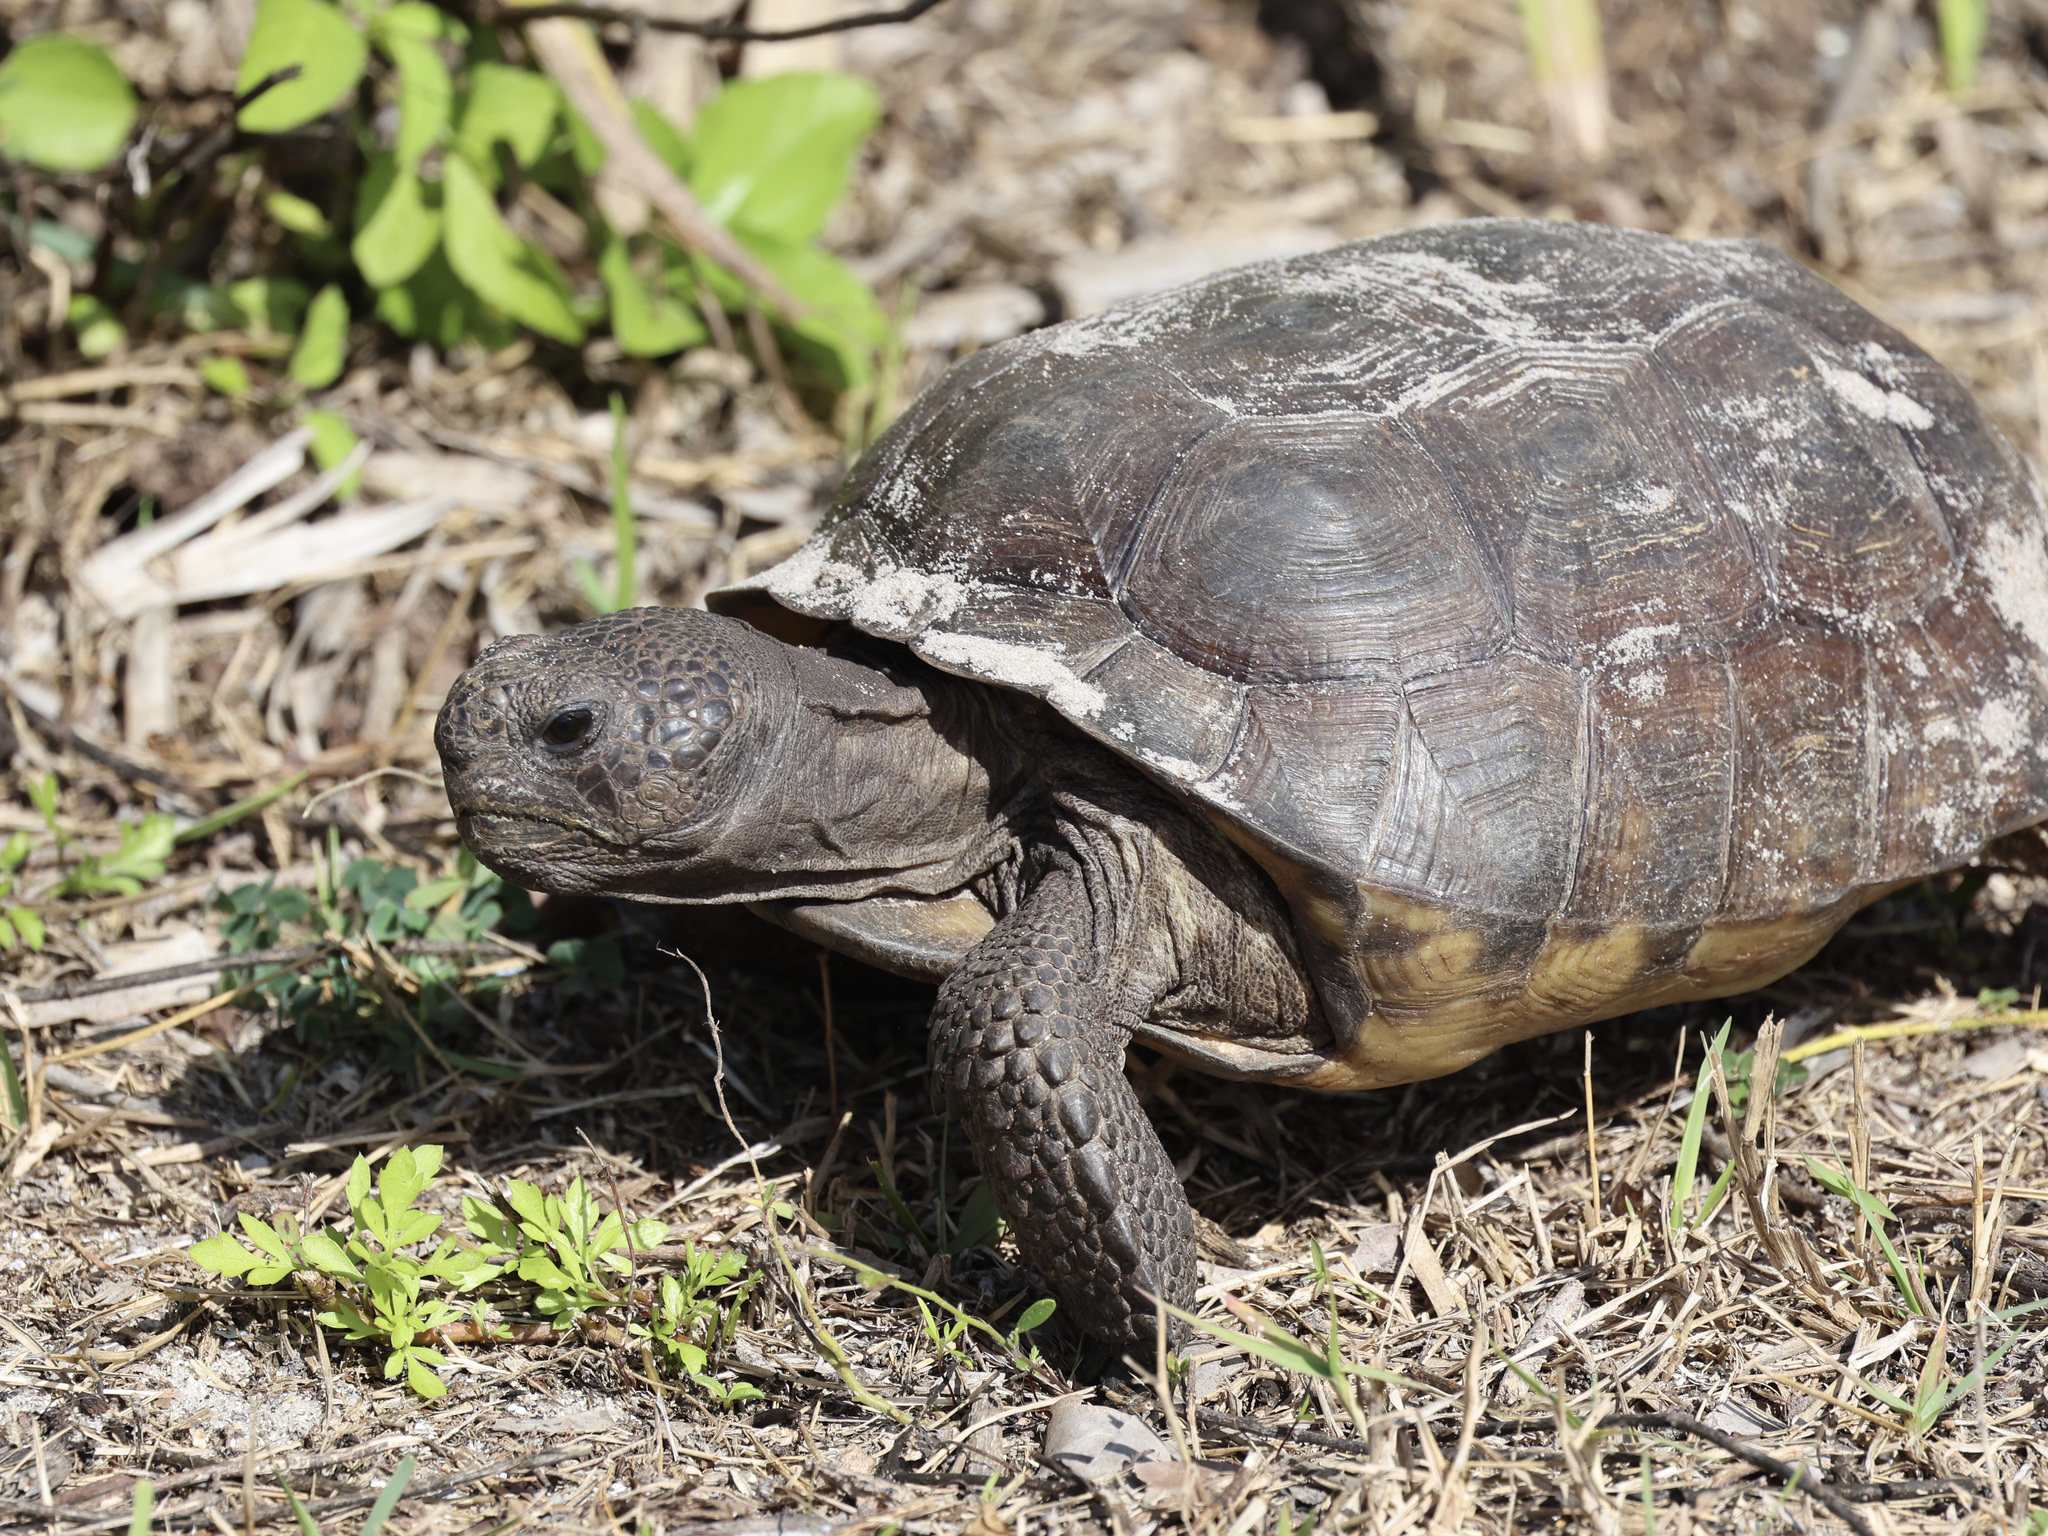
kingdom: Animalia
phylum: Chordata
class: Testudines
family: Testudinidae
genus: Gopherus
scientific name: Gopherus polyphemus
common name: Florida gopher tortoise
